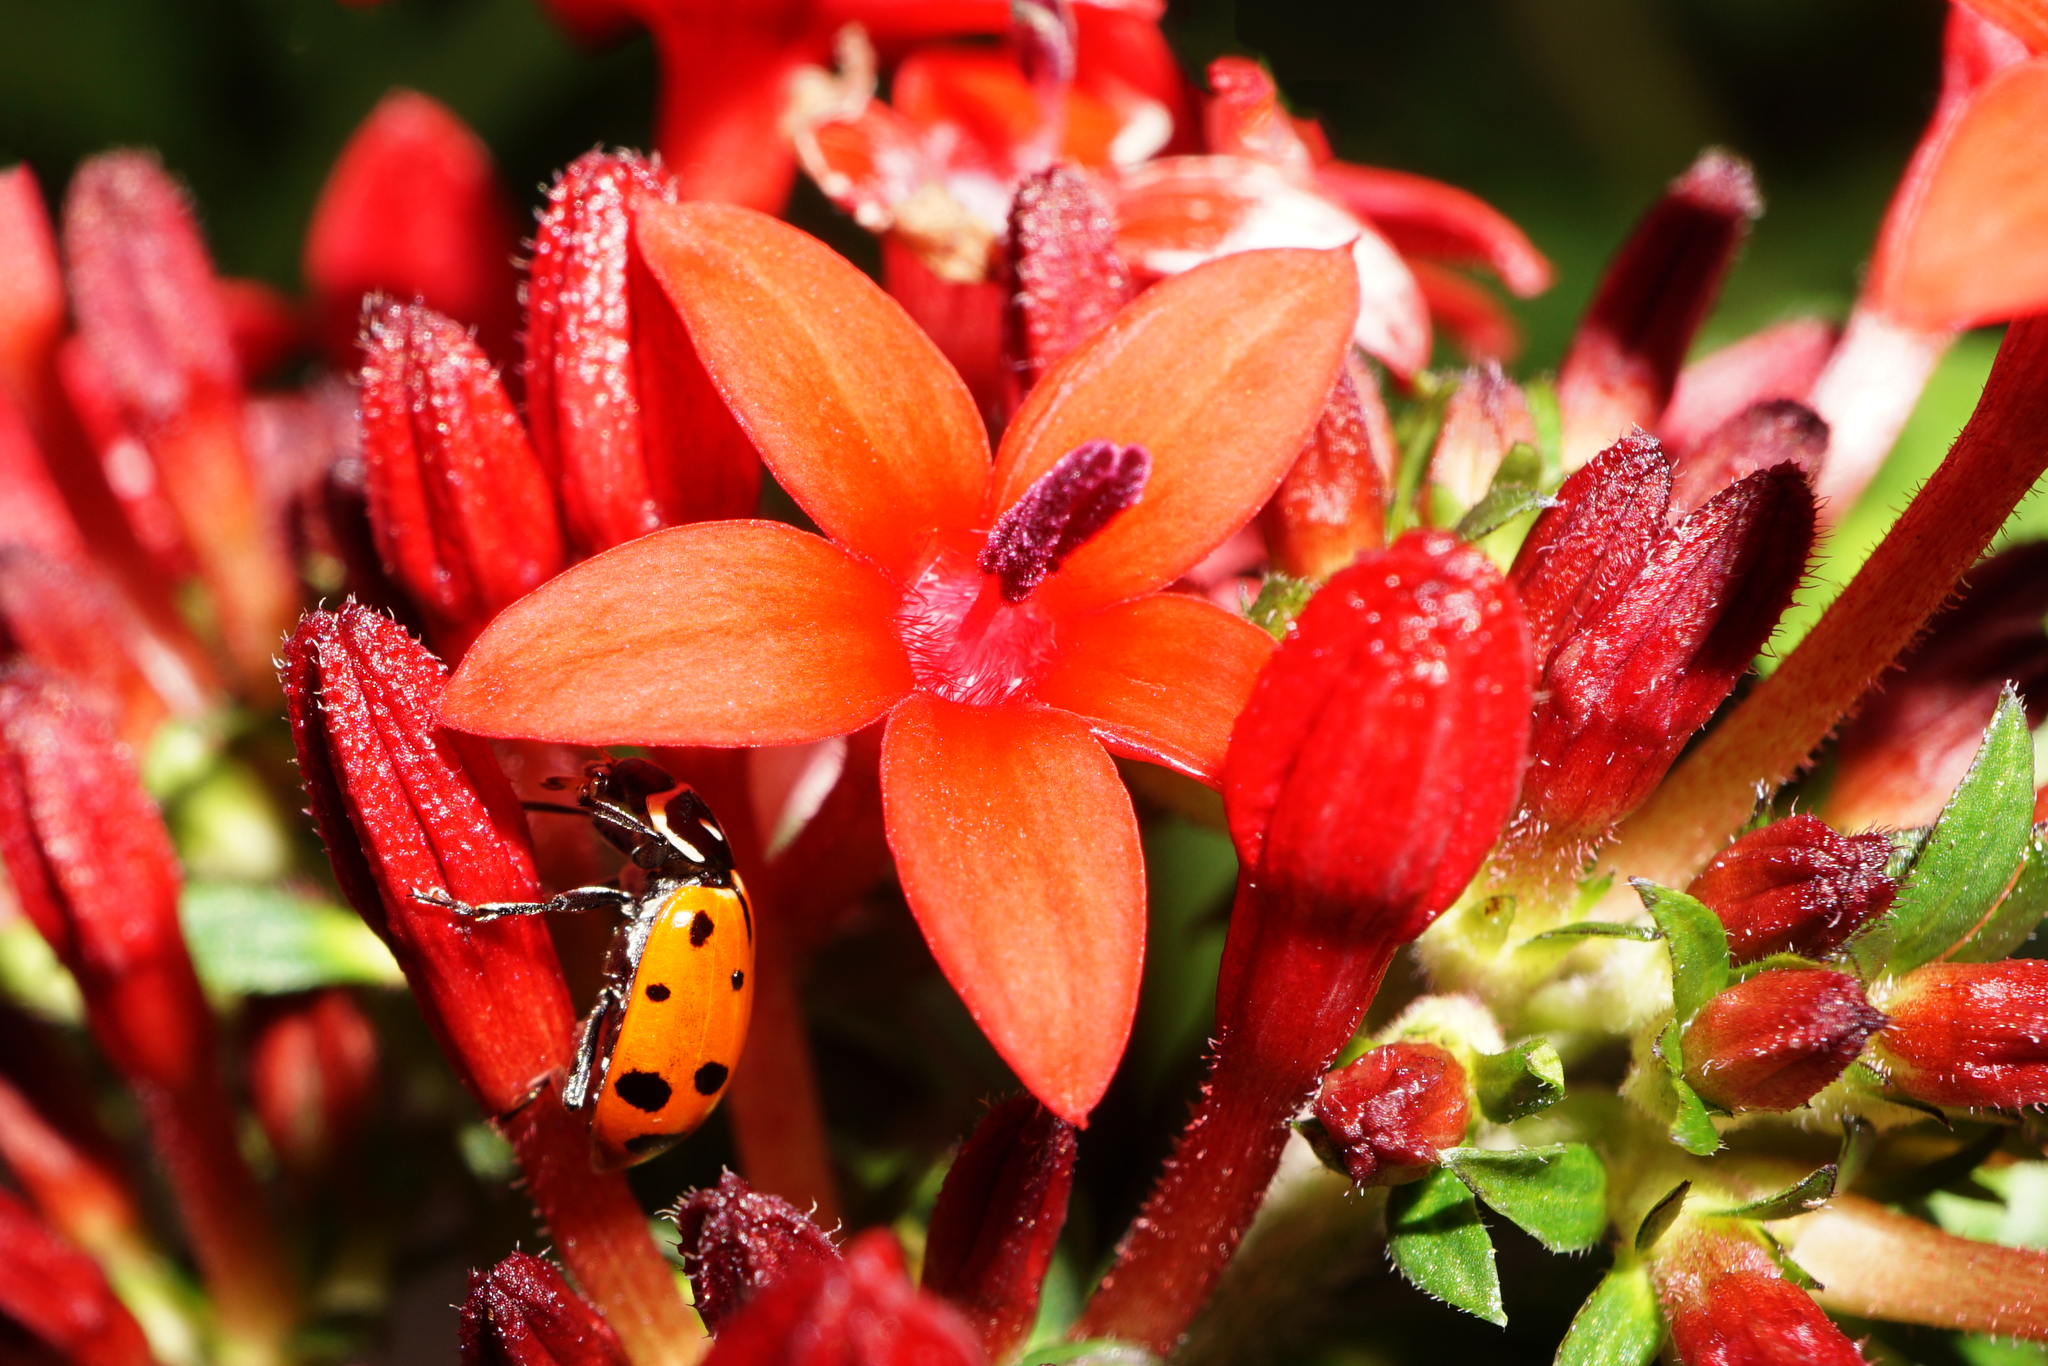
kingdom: Animalia
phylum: Arthropoda
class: Insecta
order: Coleoptera
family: Coccinellidae
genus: Hippodamia
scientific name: Hippodamia convergens
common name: Convergent lady beetle
